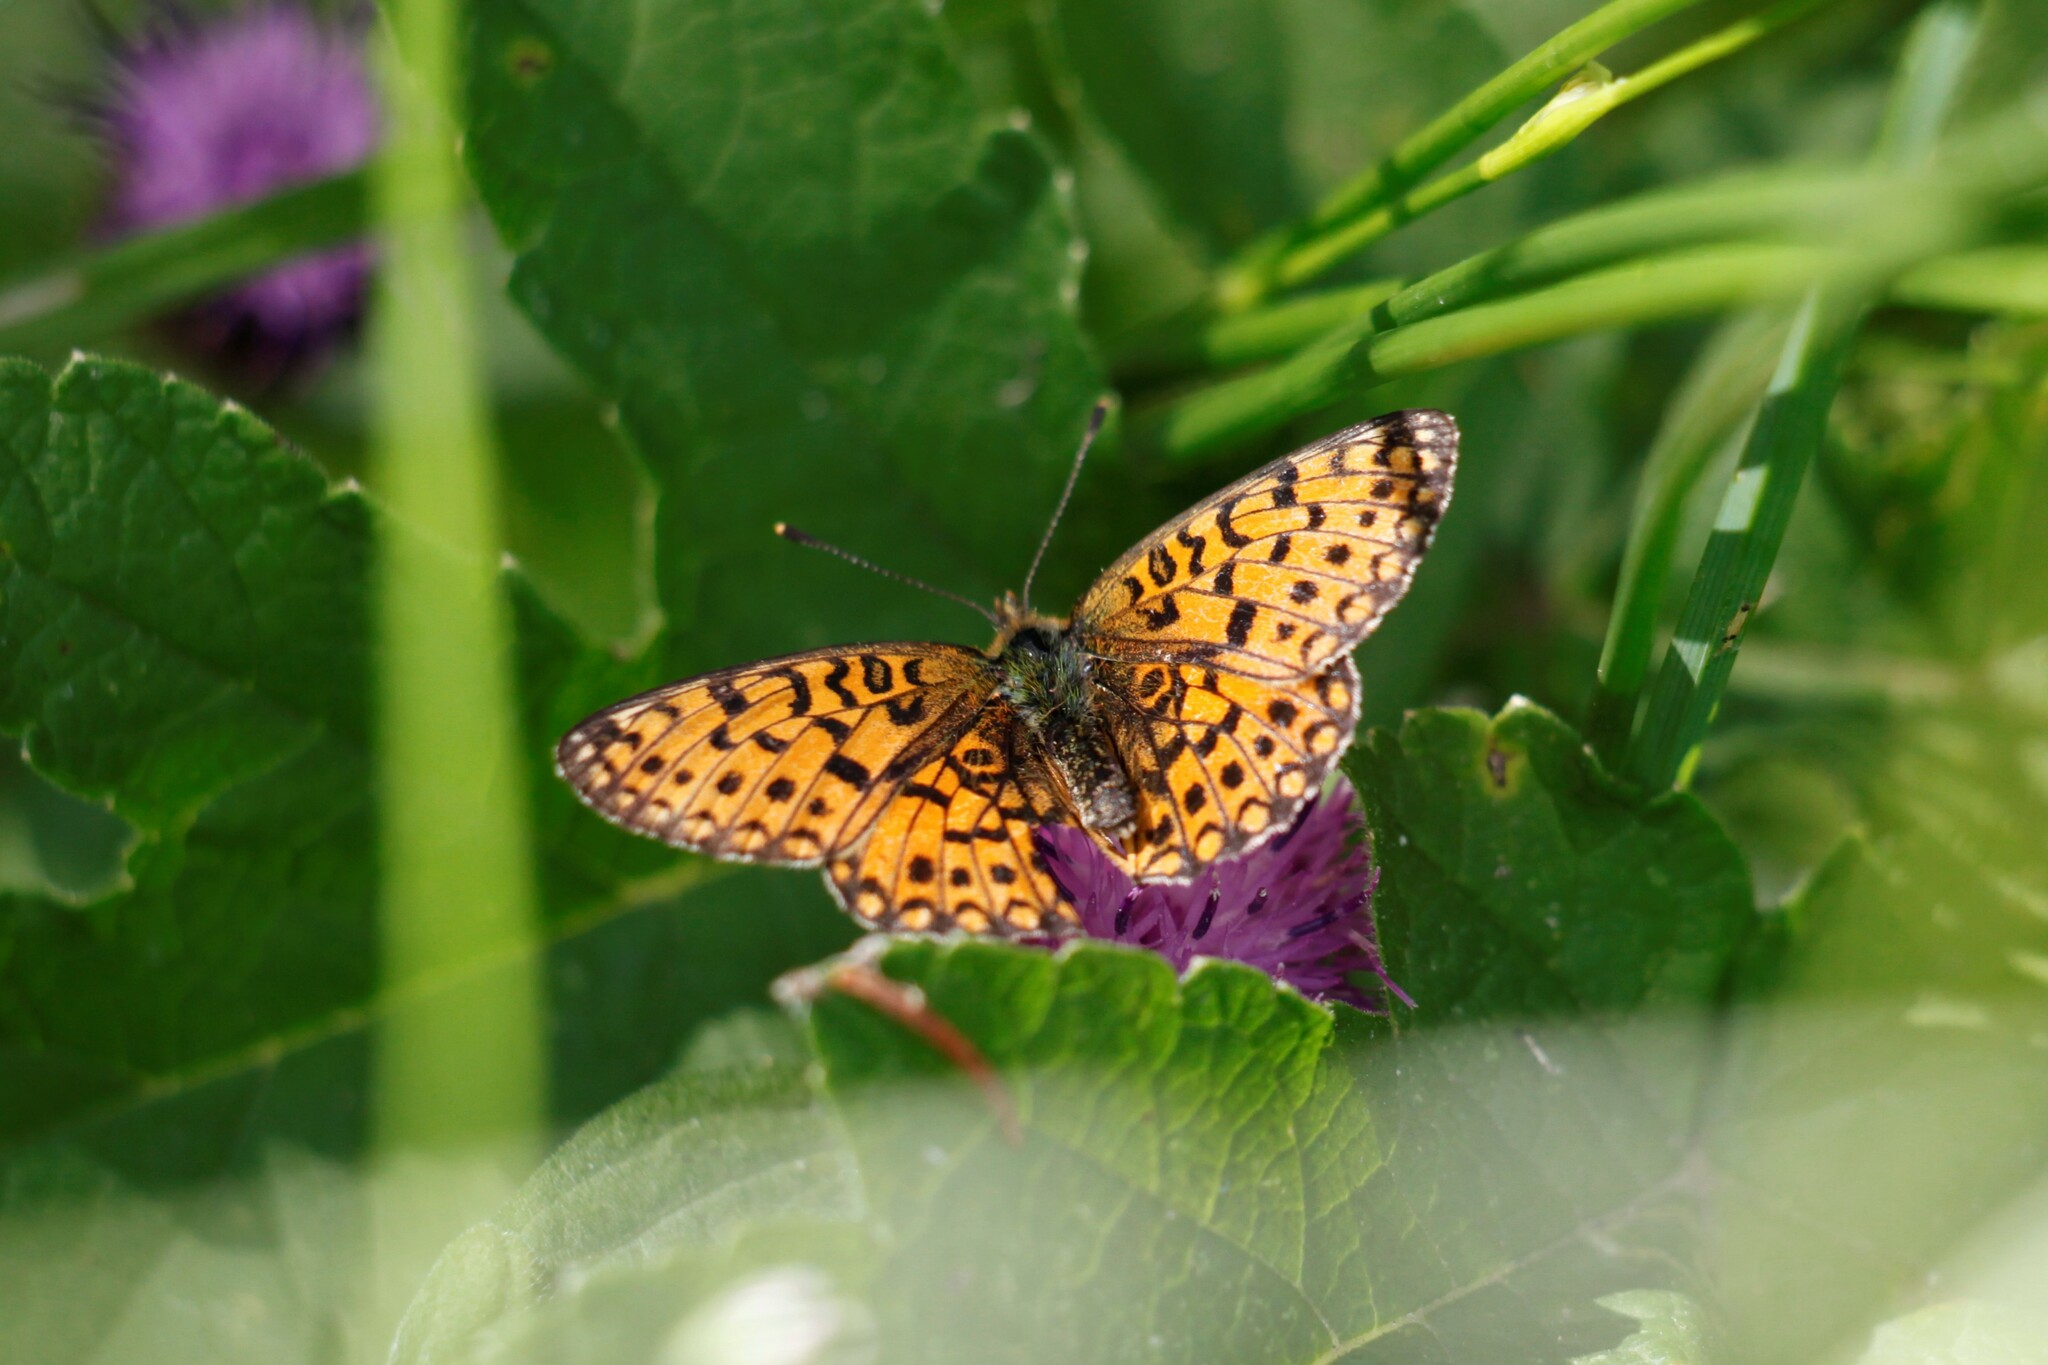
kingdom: Animalia
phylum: Arthropoda
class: Insecta
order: Lepidoptera
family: Nymphalidae
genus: Boloria
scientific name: Boloria selene
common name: Small pearl-bordered fritillary
